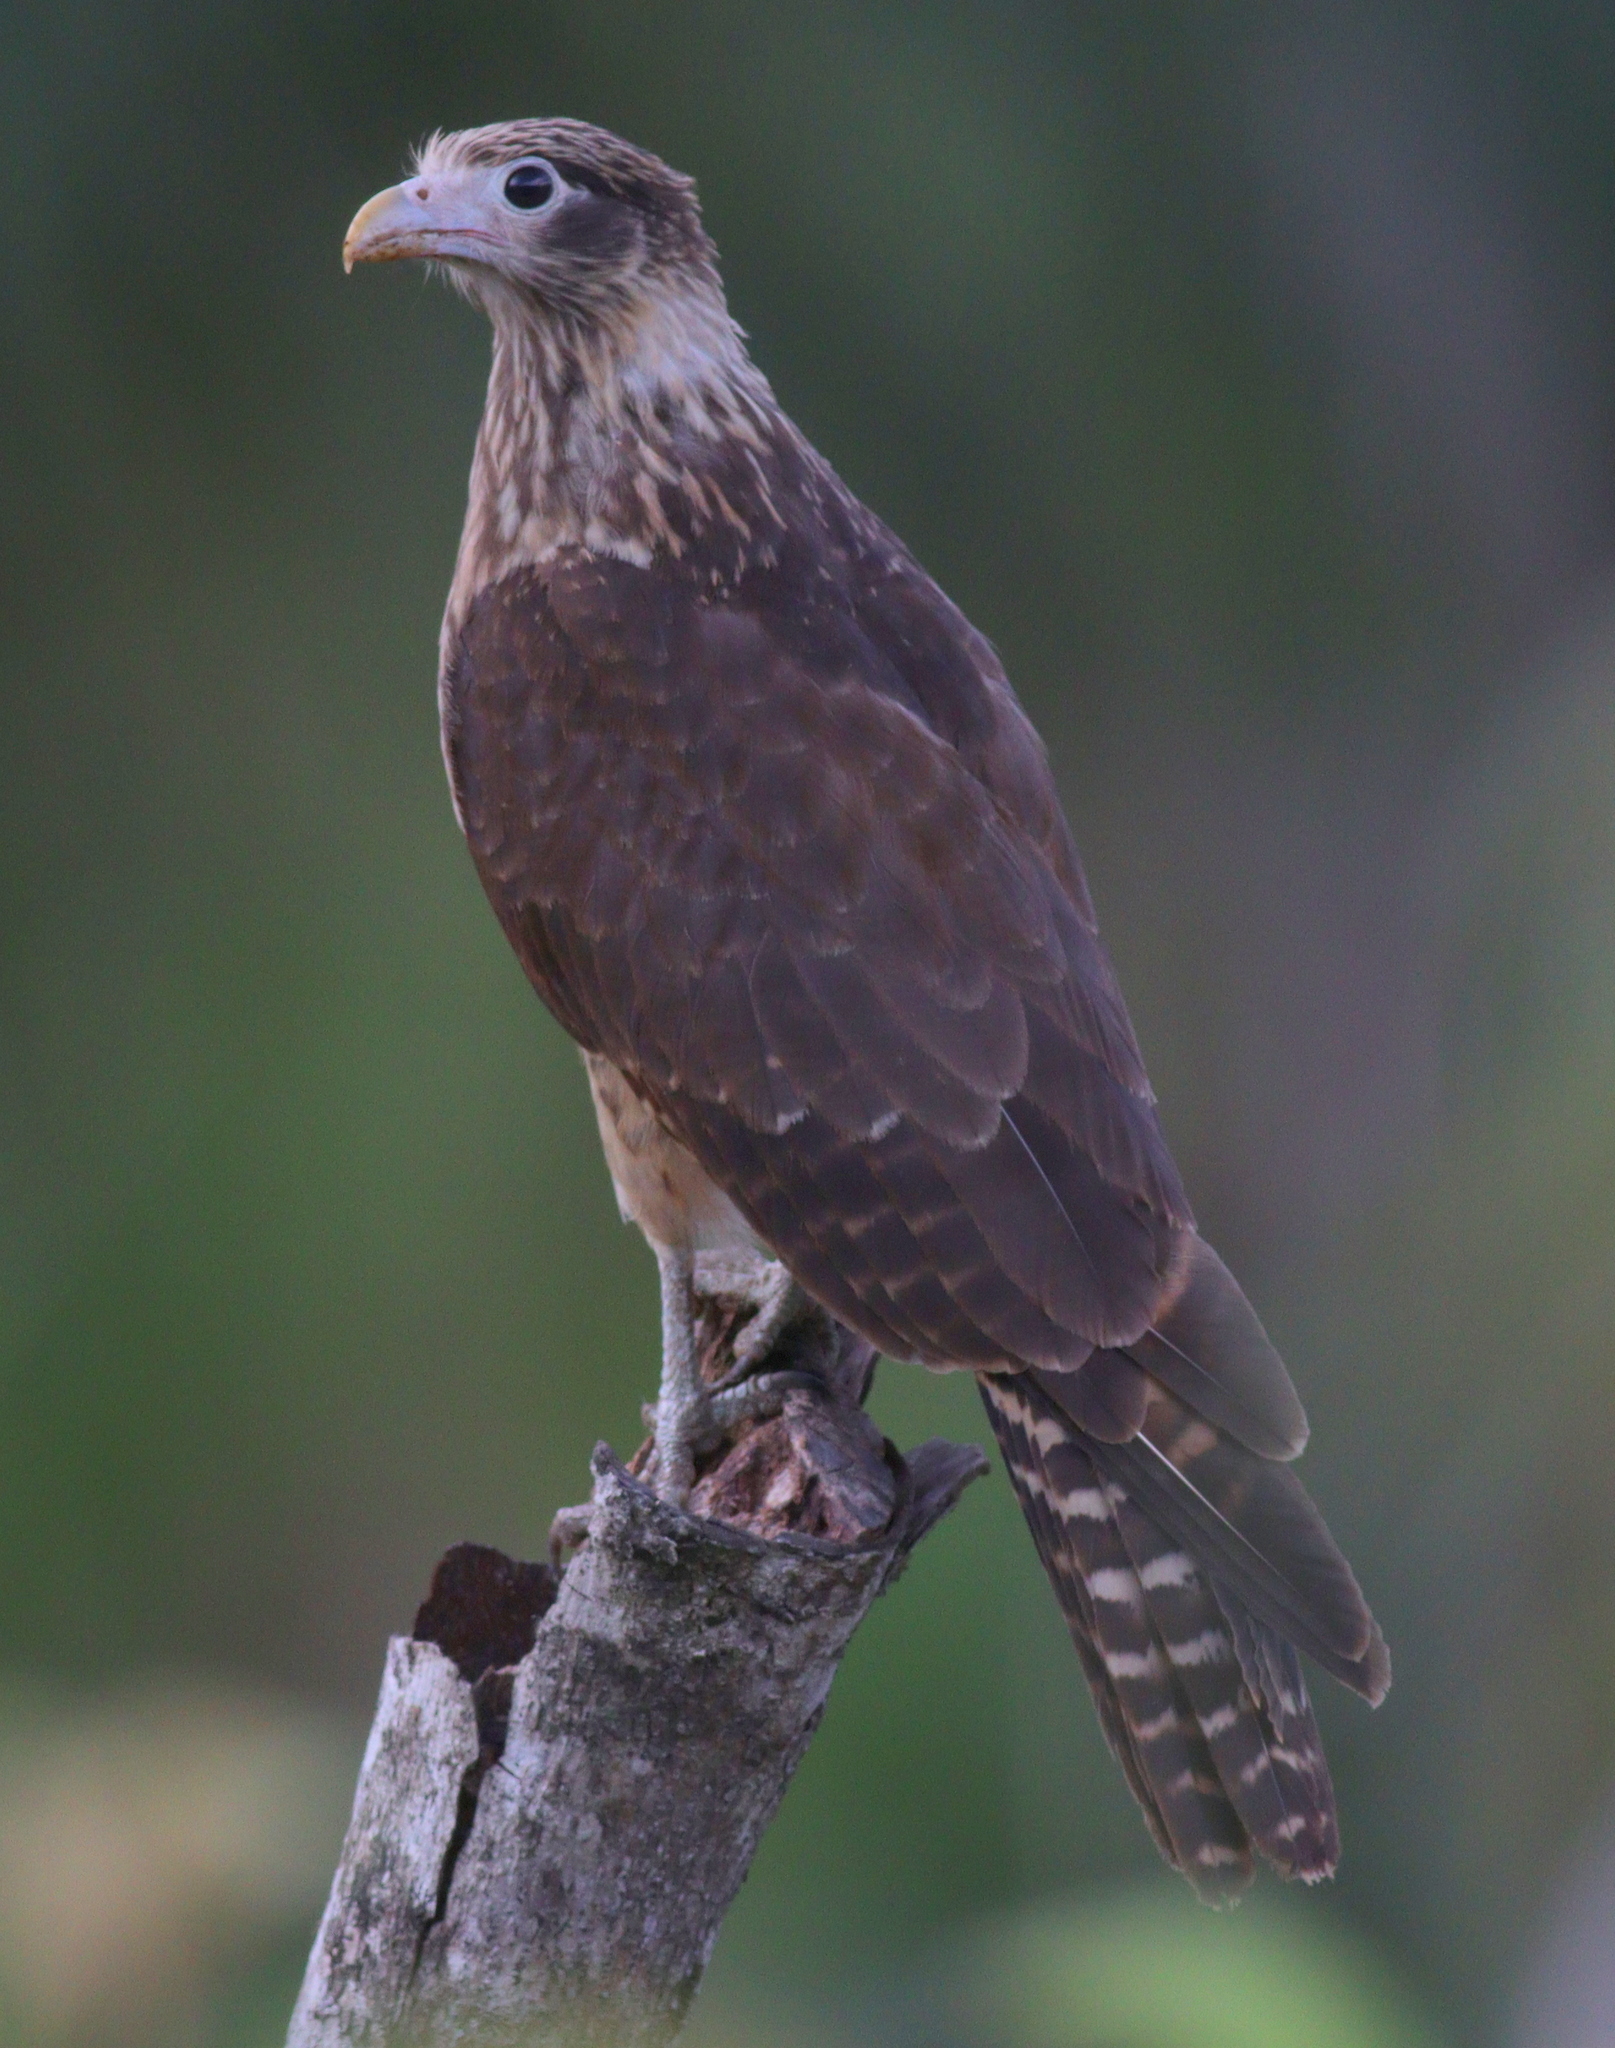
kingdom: Animalia
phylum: Chordata
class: Aves
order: Falconiformes
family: Falconidae
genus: Daptrius
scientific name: Daptrius
